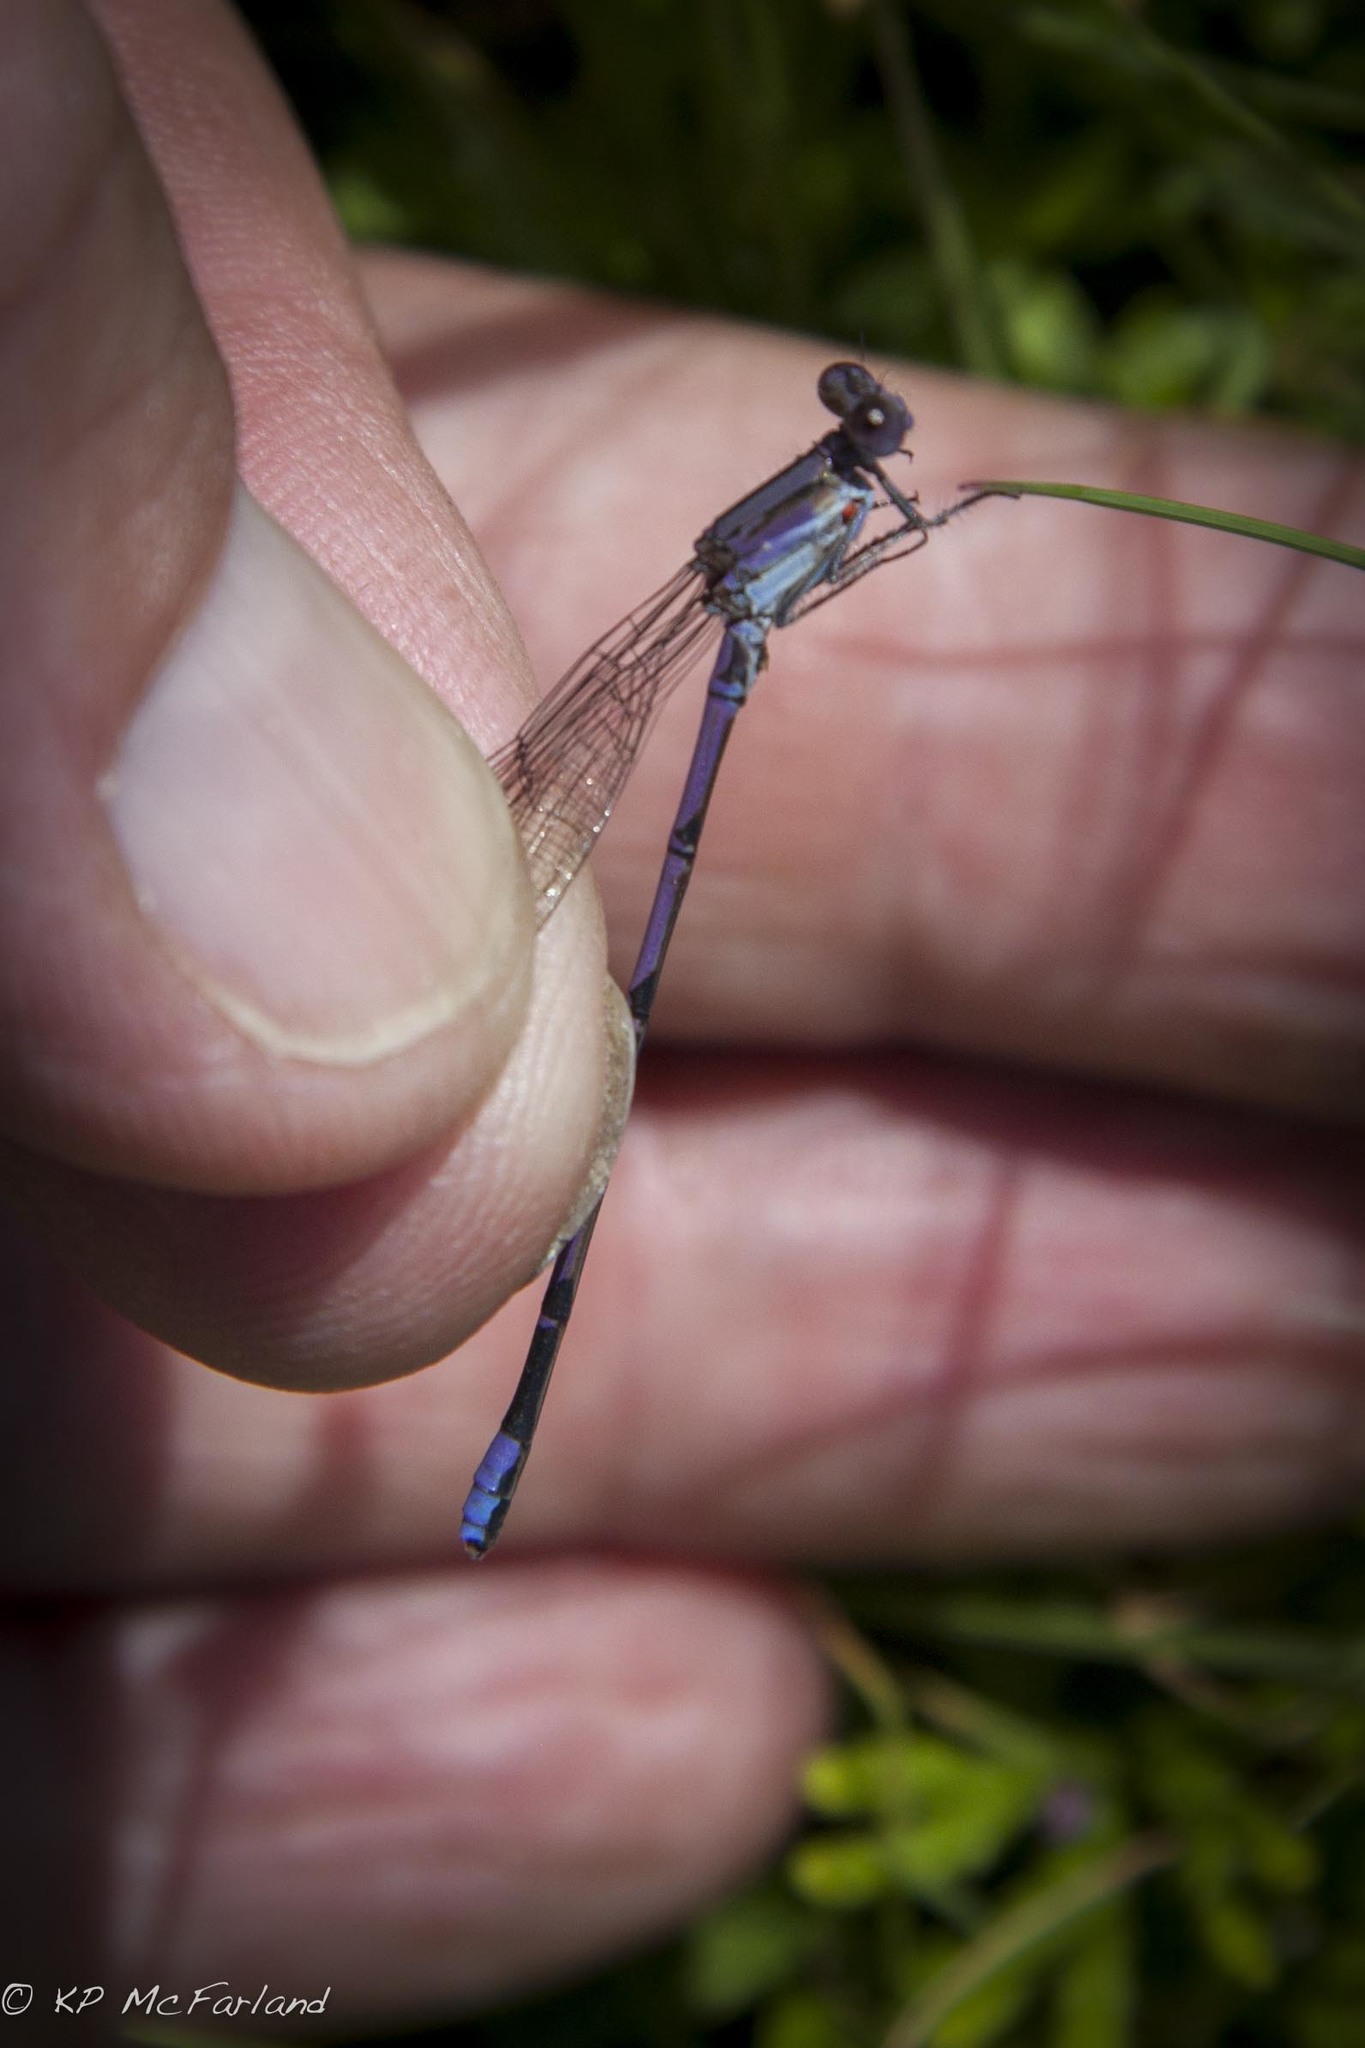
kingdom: Animalia
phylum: Arthropoda
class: Insecta
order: Odonata
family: Coenagrionidae
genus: Argia
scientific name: Argia fumipennis
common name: Variable dancer
